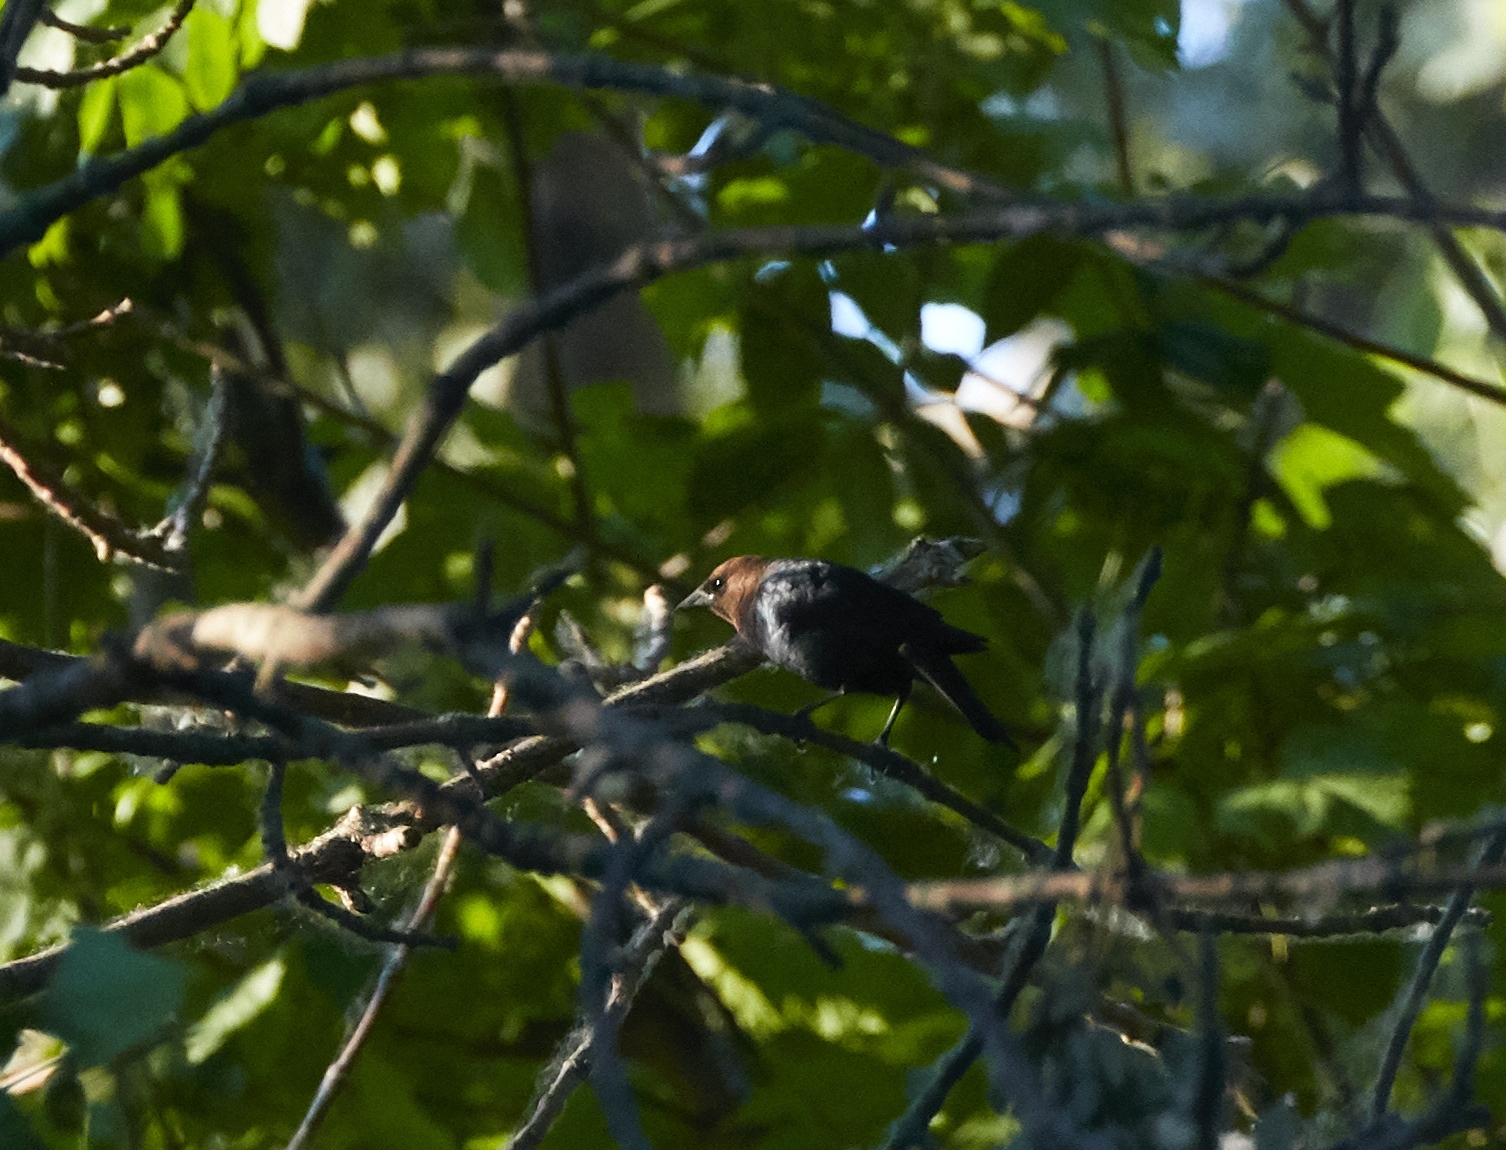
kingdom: Animalia
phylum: Chordata
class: Aves
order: Passeriformes
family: Icteridae
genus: Molothrus
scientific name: Molothrus ater
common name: Brown-headed cowbird
